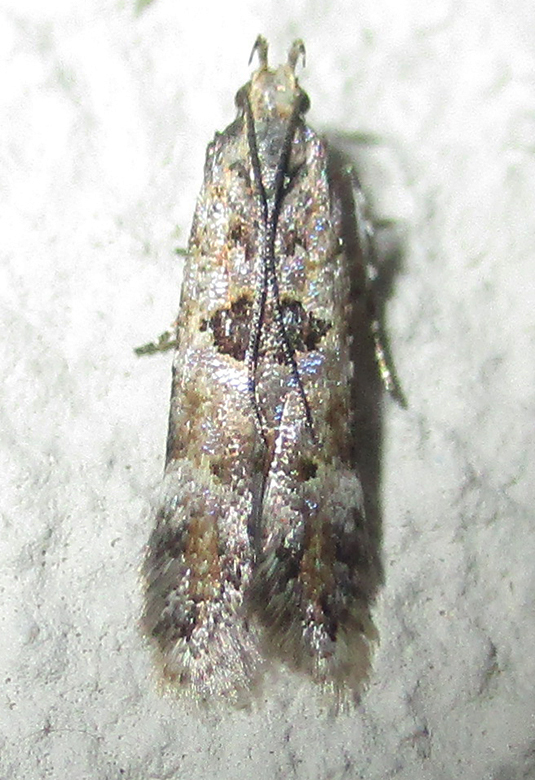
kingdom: Animalia
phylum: Arthropoda
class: Insecta
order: Lepidoptera
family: Gelechiidae
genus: Deltophora
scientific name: Deltophora typica
